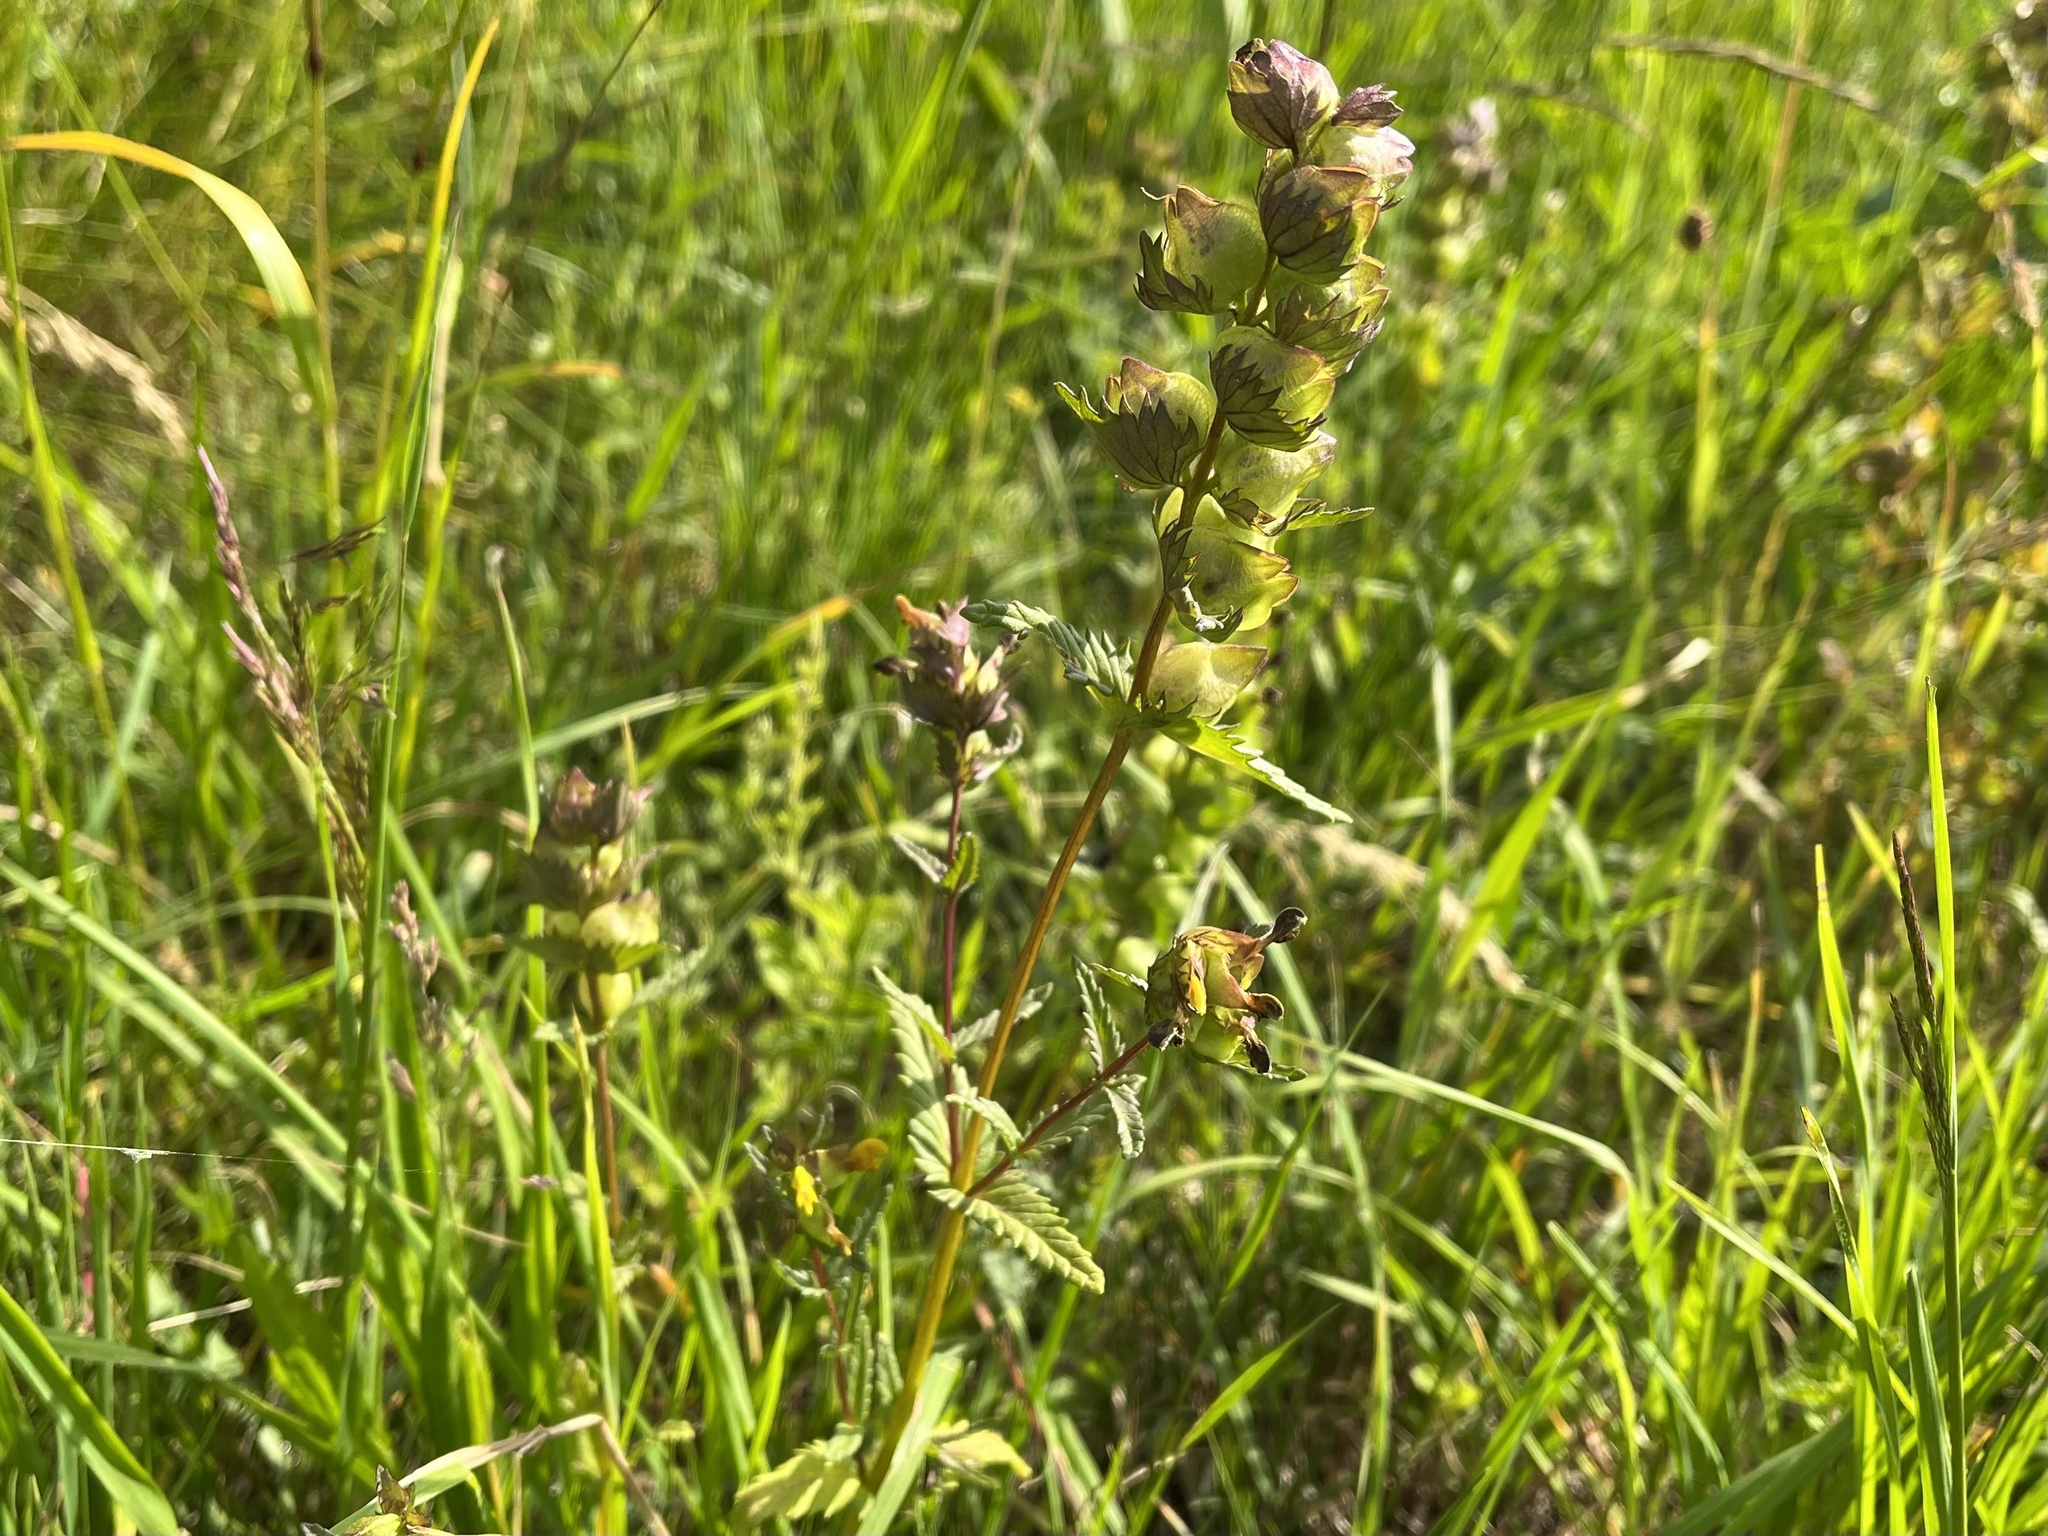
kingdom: Plantae
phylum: Tracheophyta
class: Magnoliopsida
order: Lamiales
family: Orobanchaceae
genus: Rhinanthus
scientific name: Rhinanthus minor
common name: Yellow-rattle
